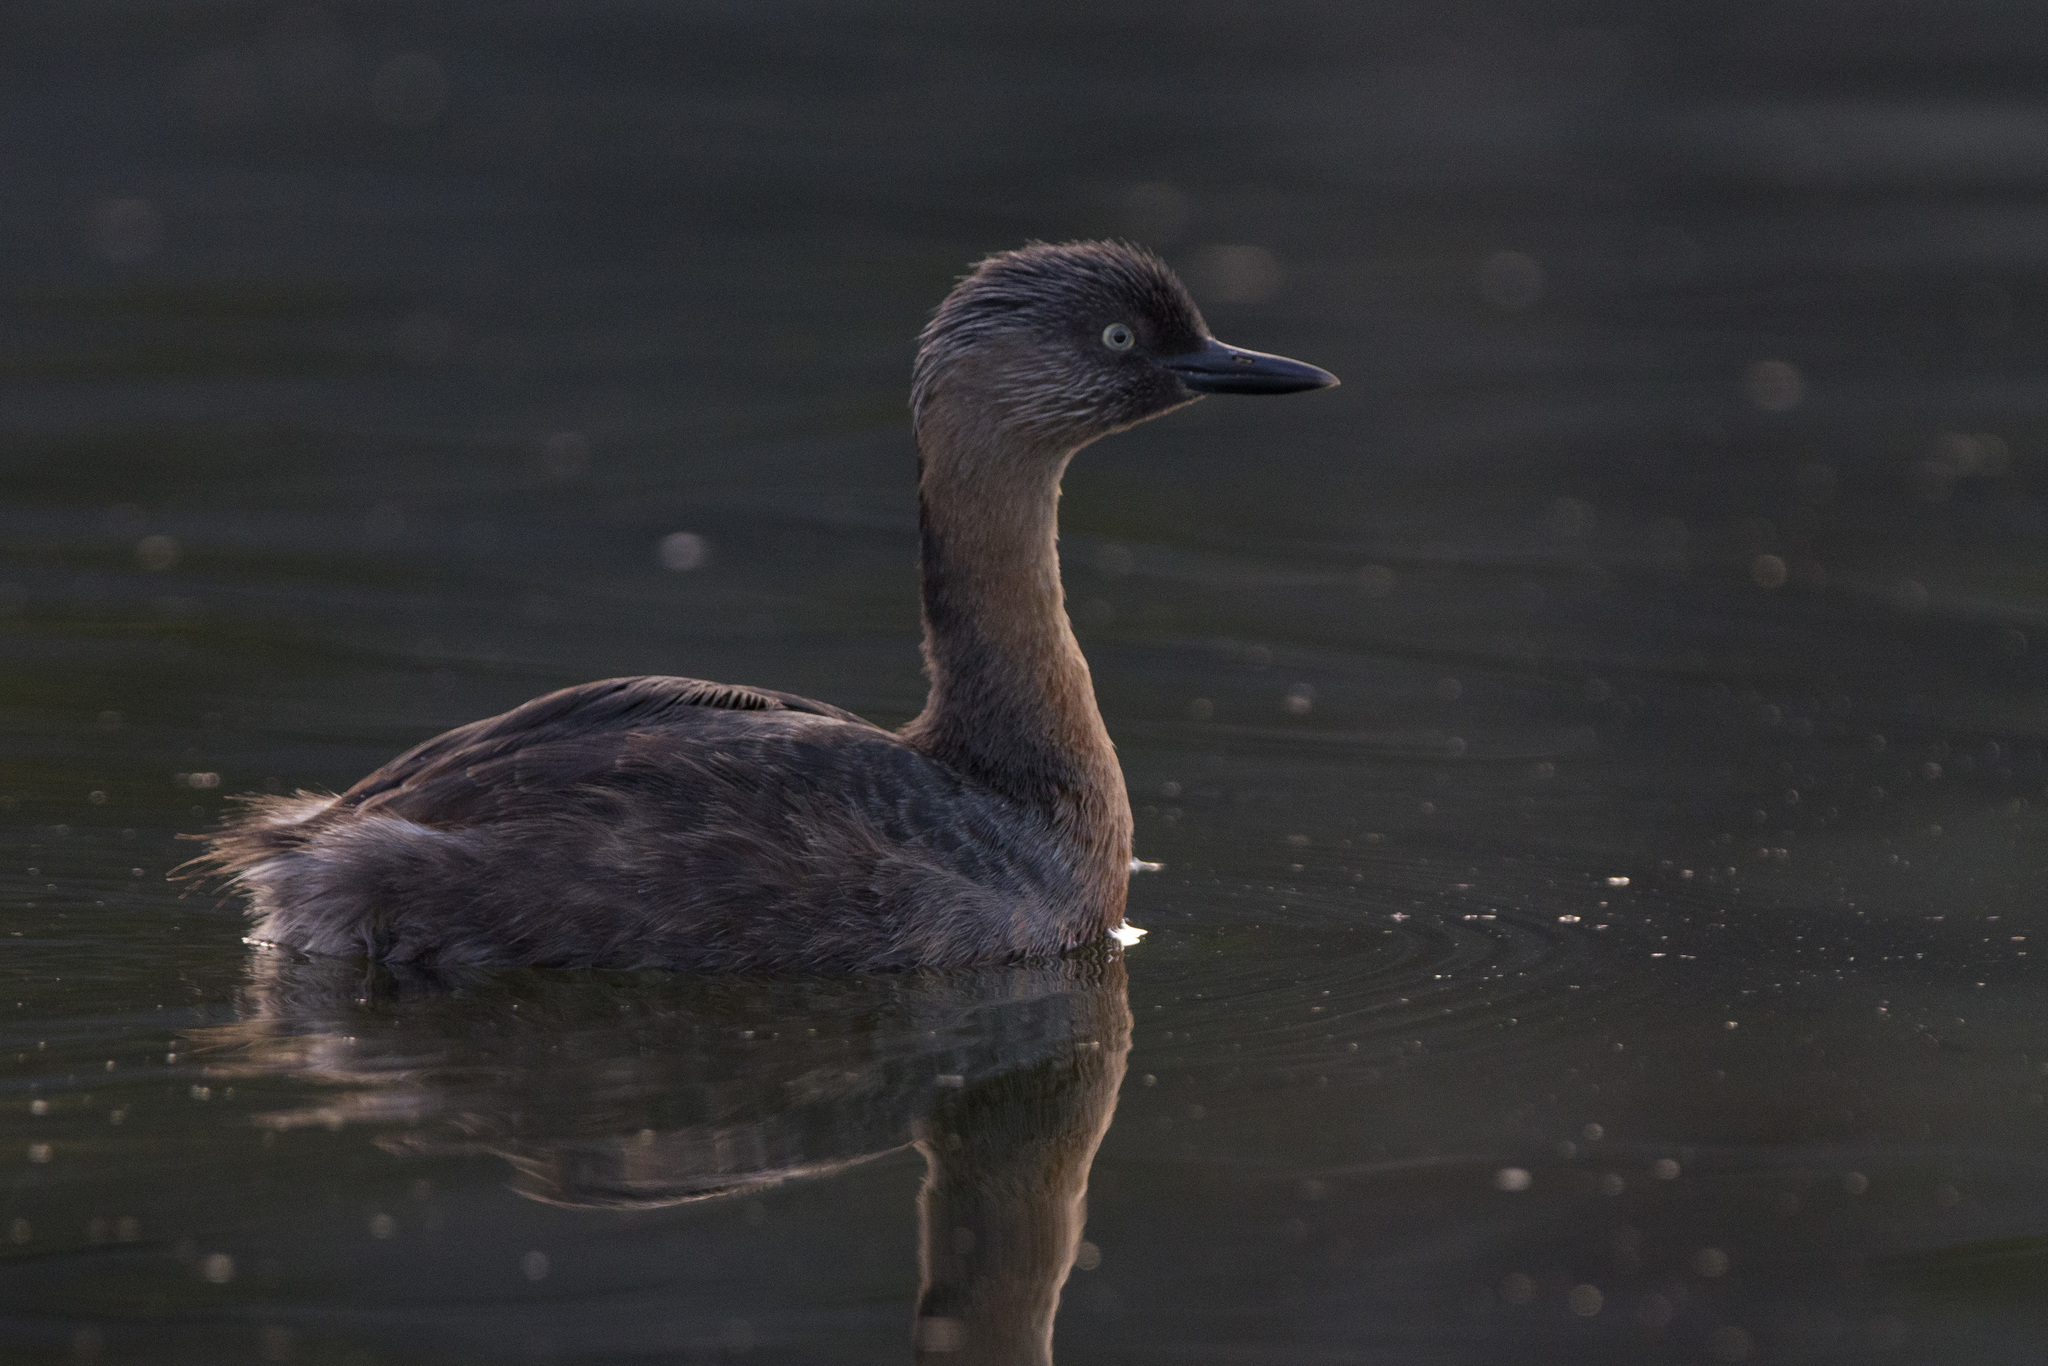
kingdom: Animalia
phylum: Chordata
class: Aves
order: Podicipediformes
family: Podicipedidae
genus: Poliocephalus
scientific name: Poliocephalus rufopectus
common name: New zealand grebe
